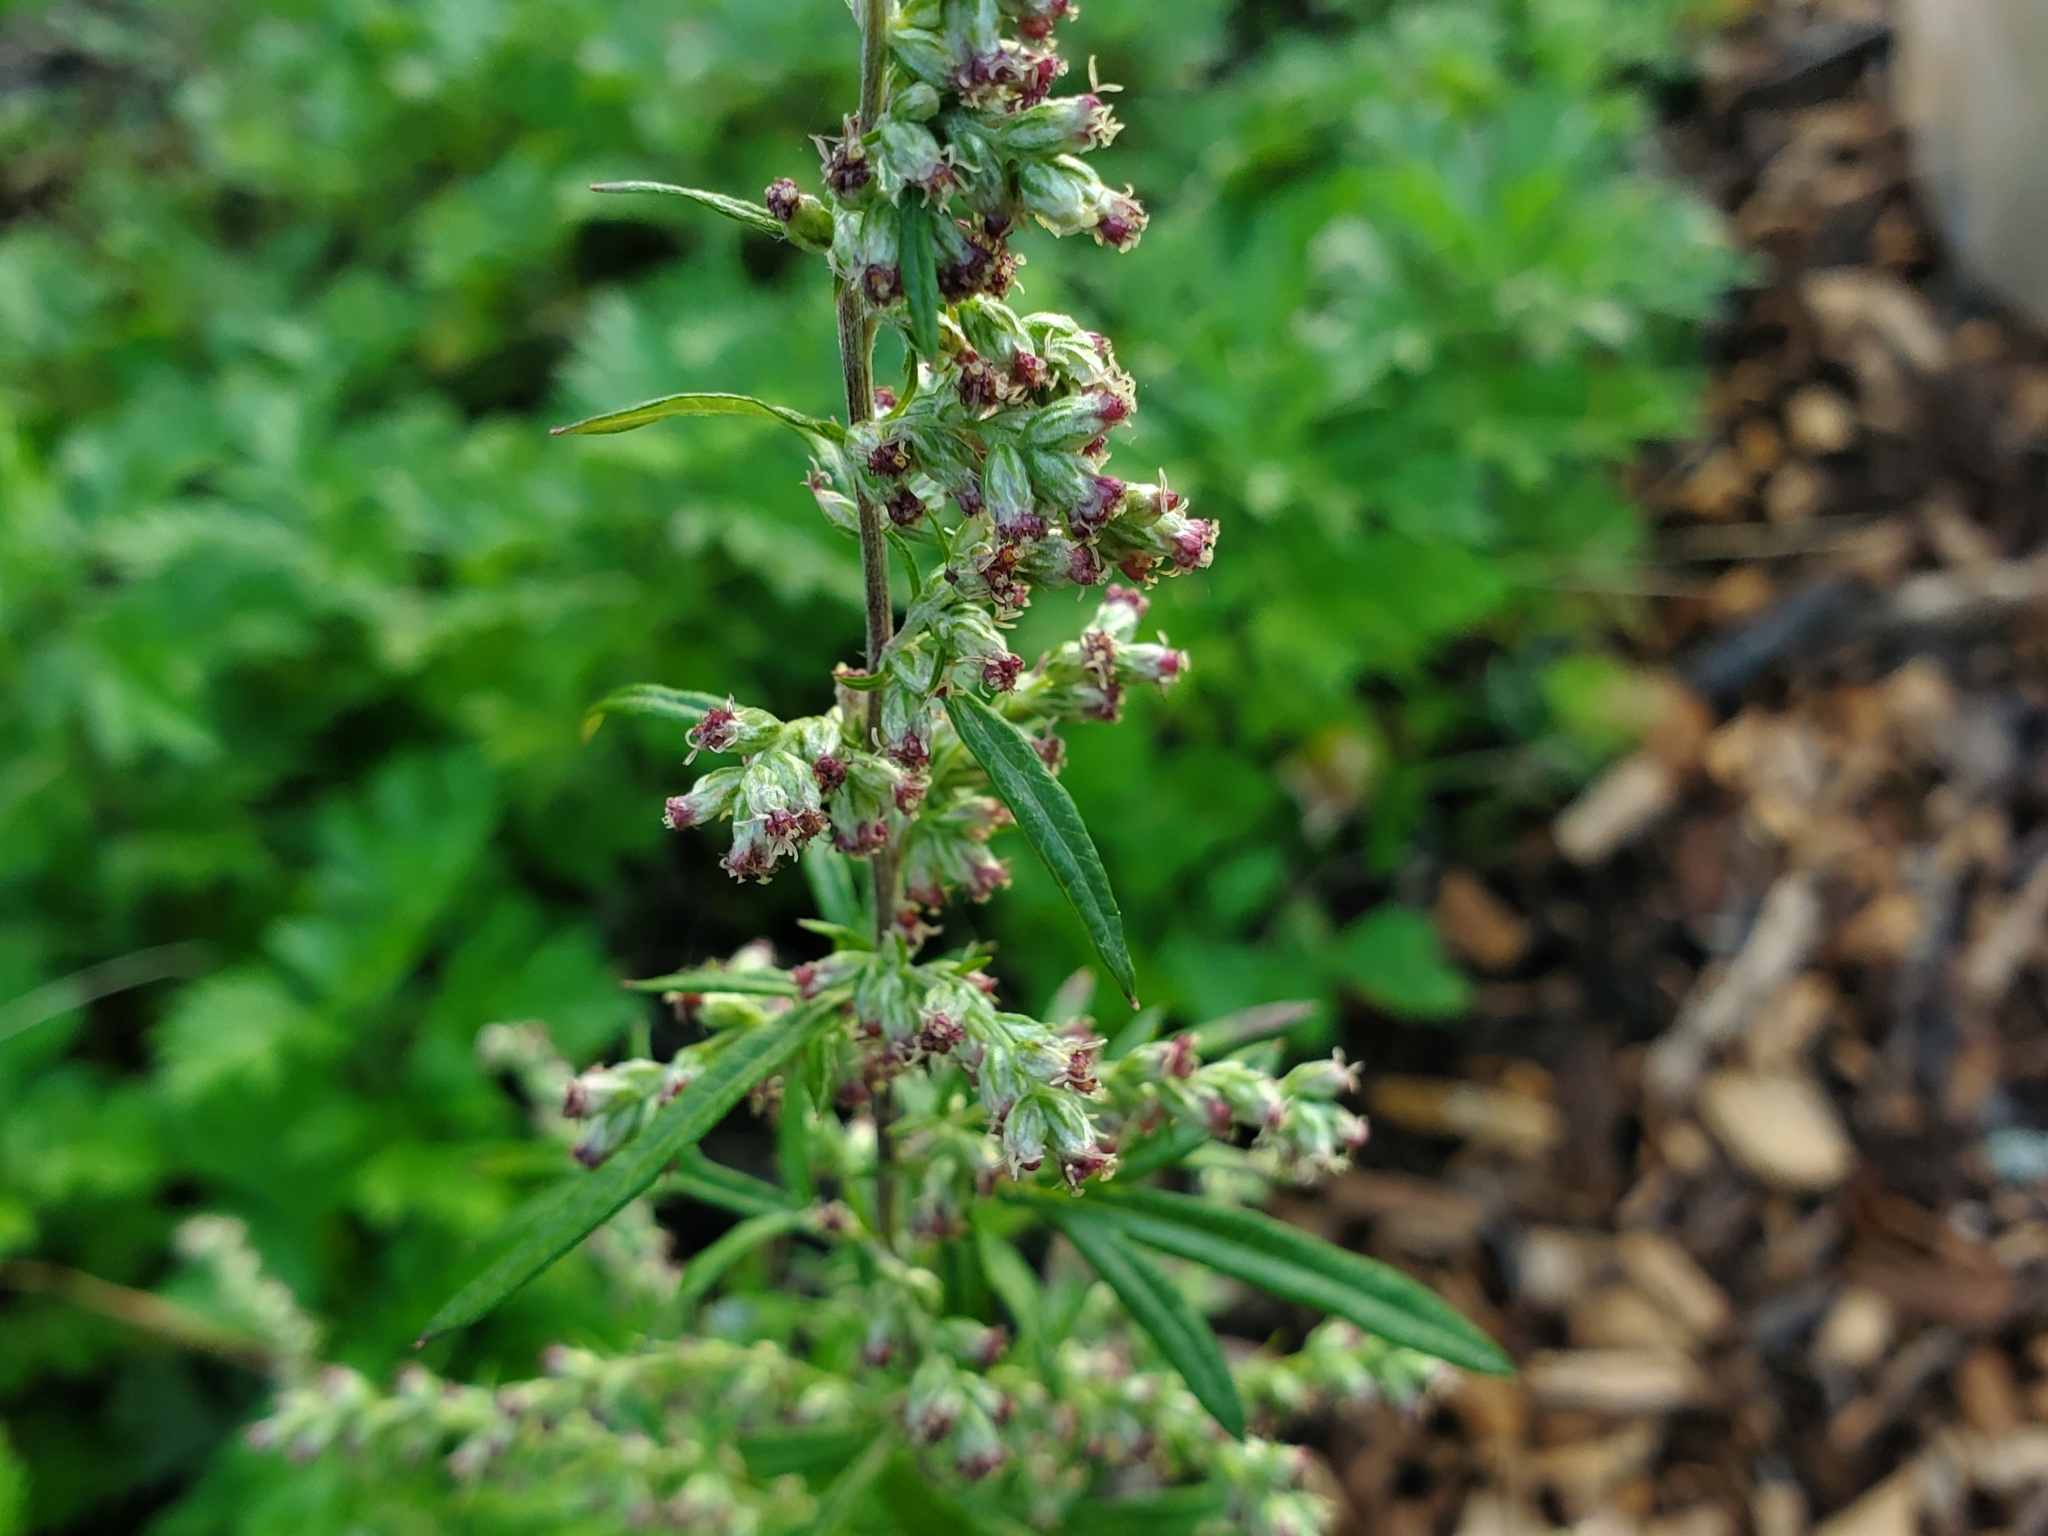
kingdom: Plantae
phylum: Tracheophyta
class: Magnoliopsida
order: Asterales
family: Asteraceae
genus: Artemisia
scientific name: Artemisia vulgaris
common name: Mugwort
